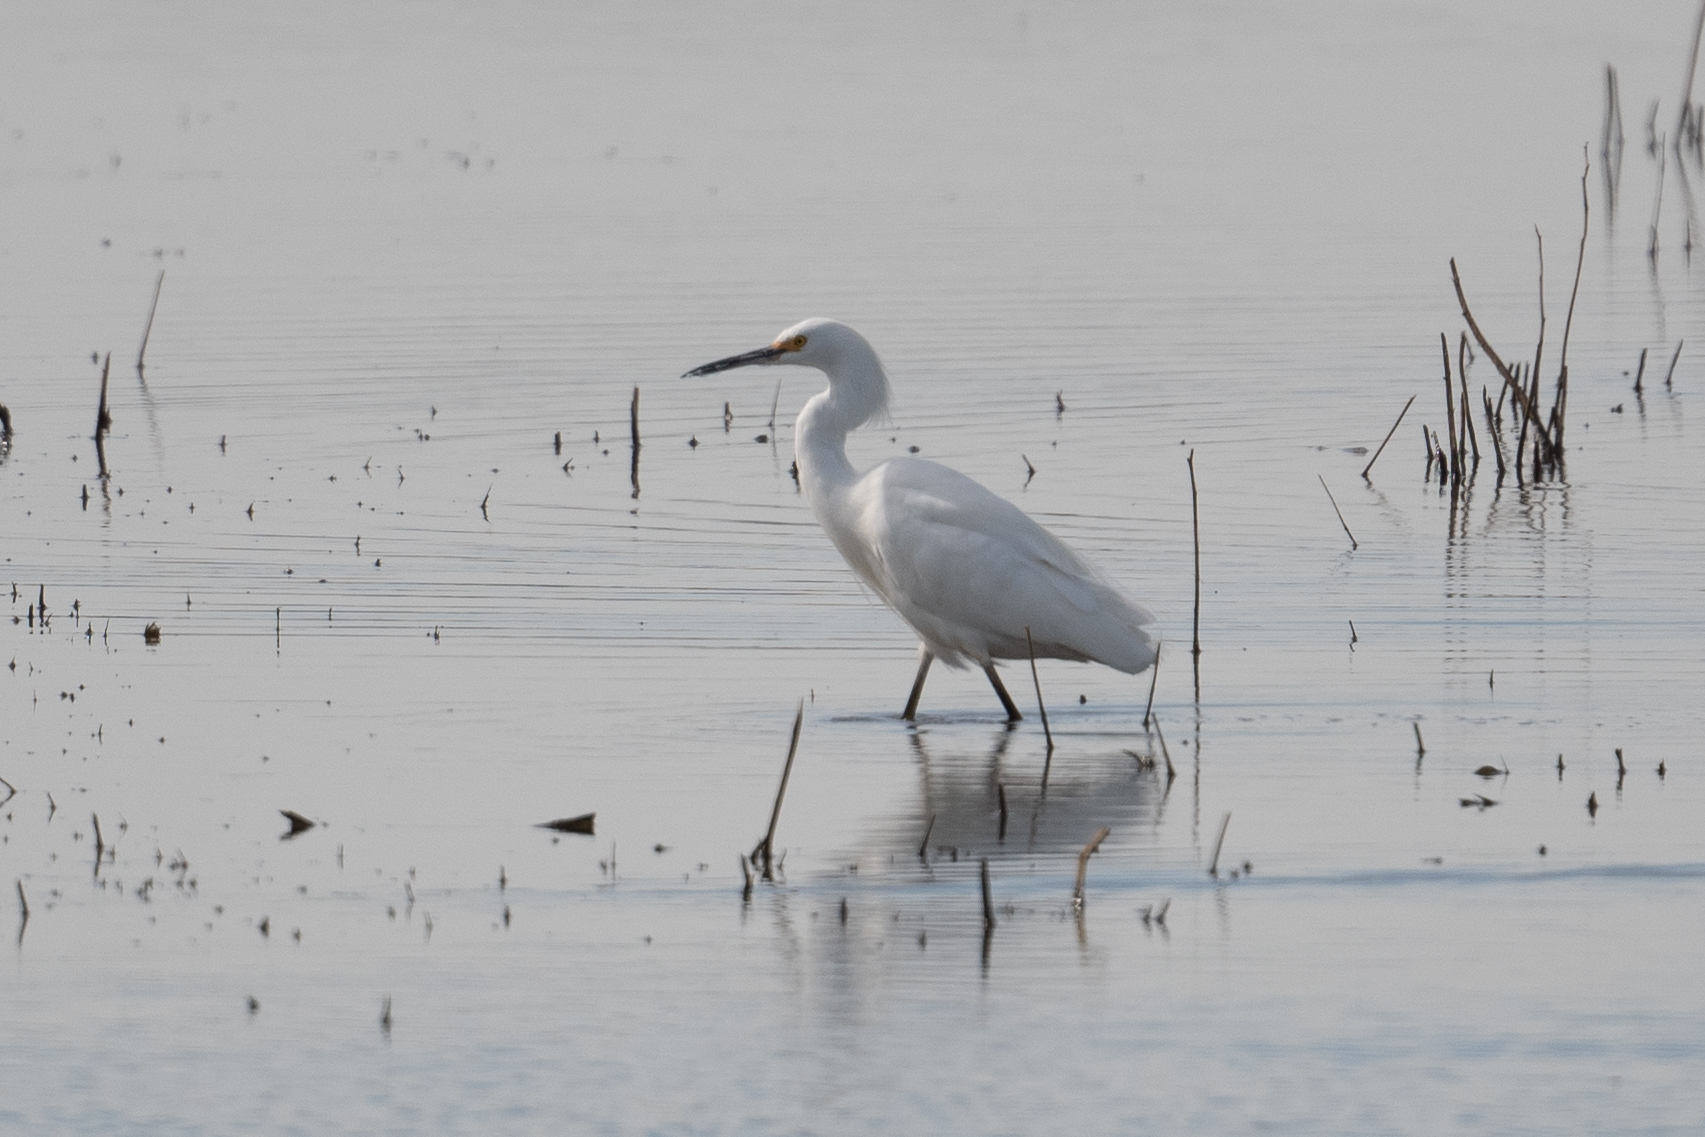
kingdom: Animalia
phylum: Chordata
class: Aves
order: Pelecaniformes
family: Ardeidae
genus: Egretta
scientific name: Egretta thula
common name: Snowy egret
